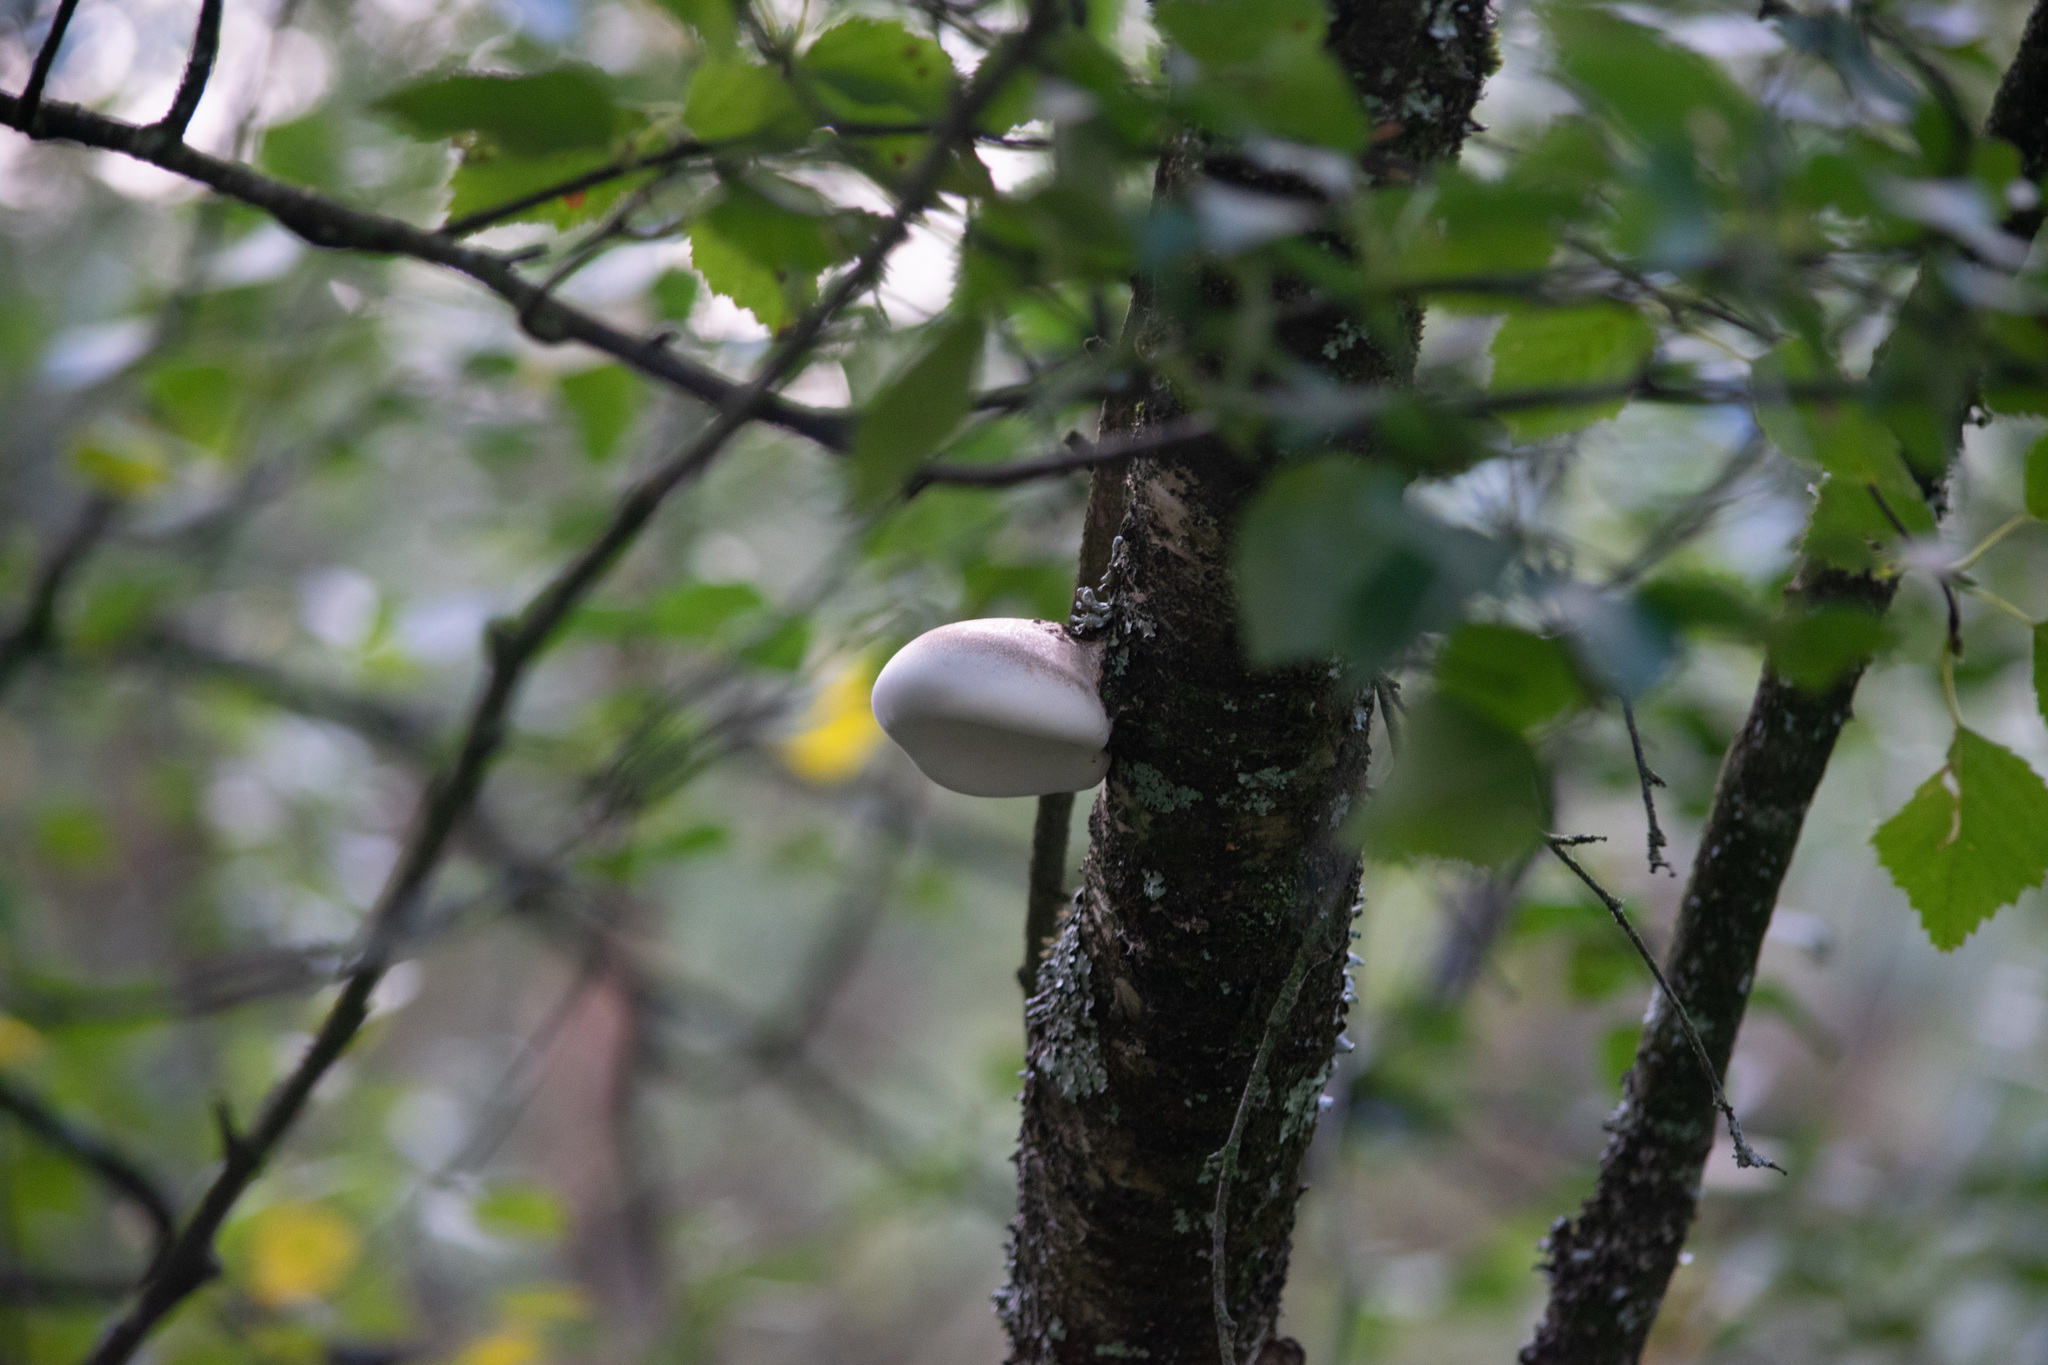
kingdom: Fungi
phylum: Basidiomycota
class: Agaricomycetes
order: Polyporales
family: Fomitopsidaceae
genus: Fomitopsis
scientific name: Fomitopsis betulina
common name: Birch polypore
